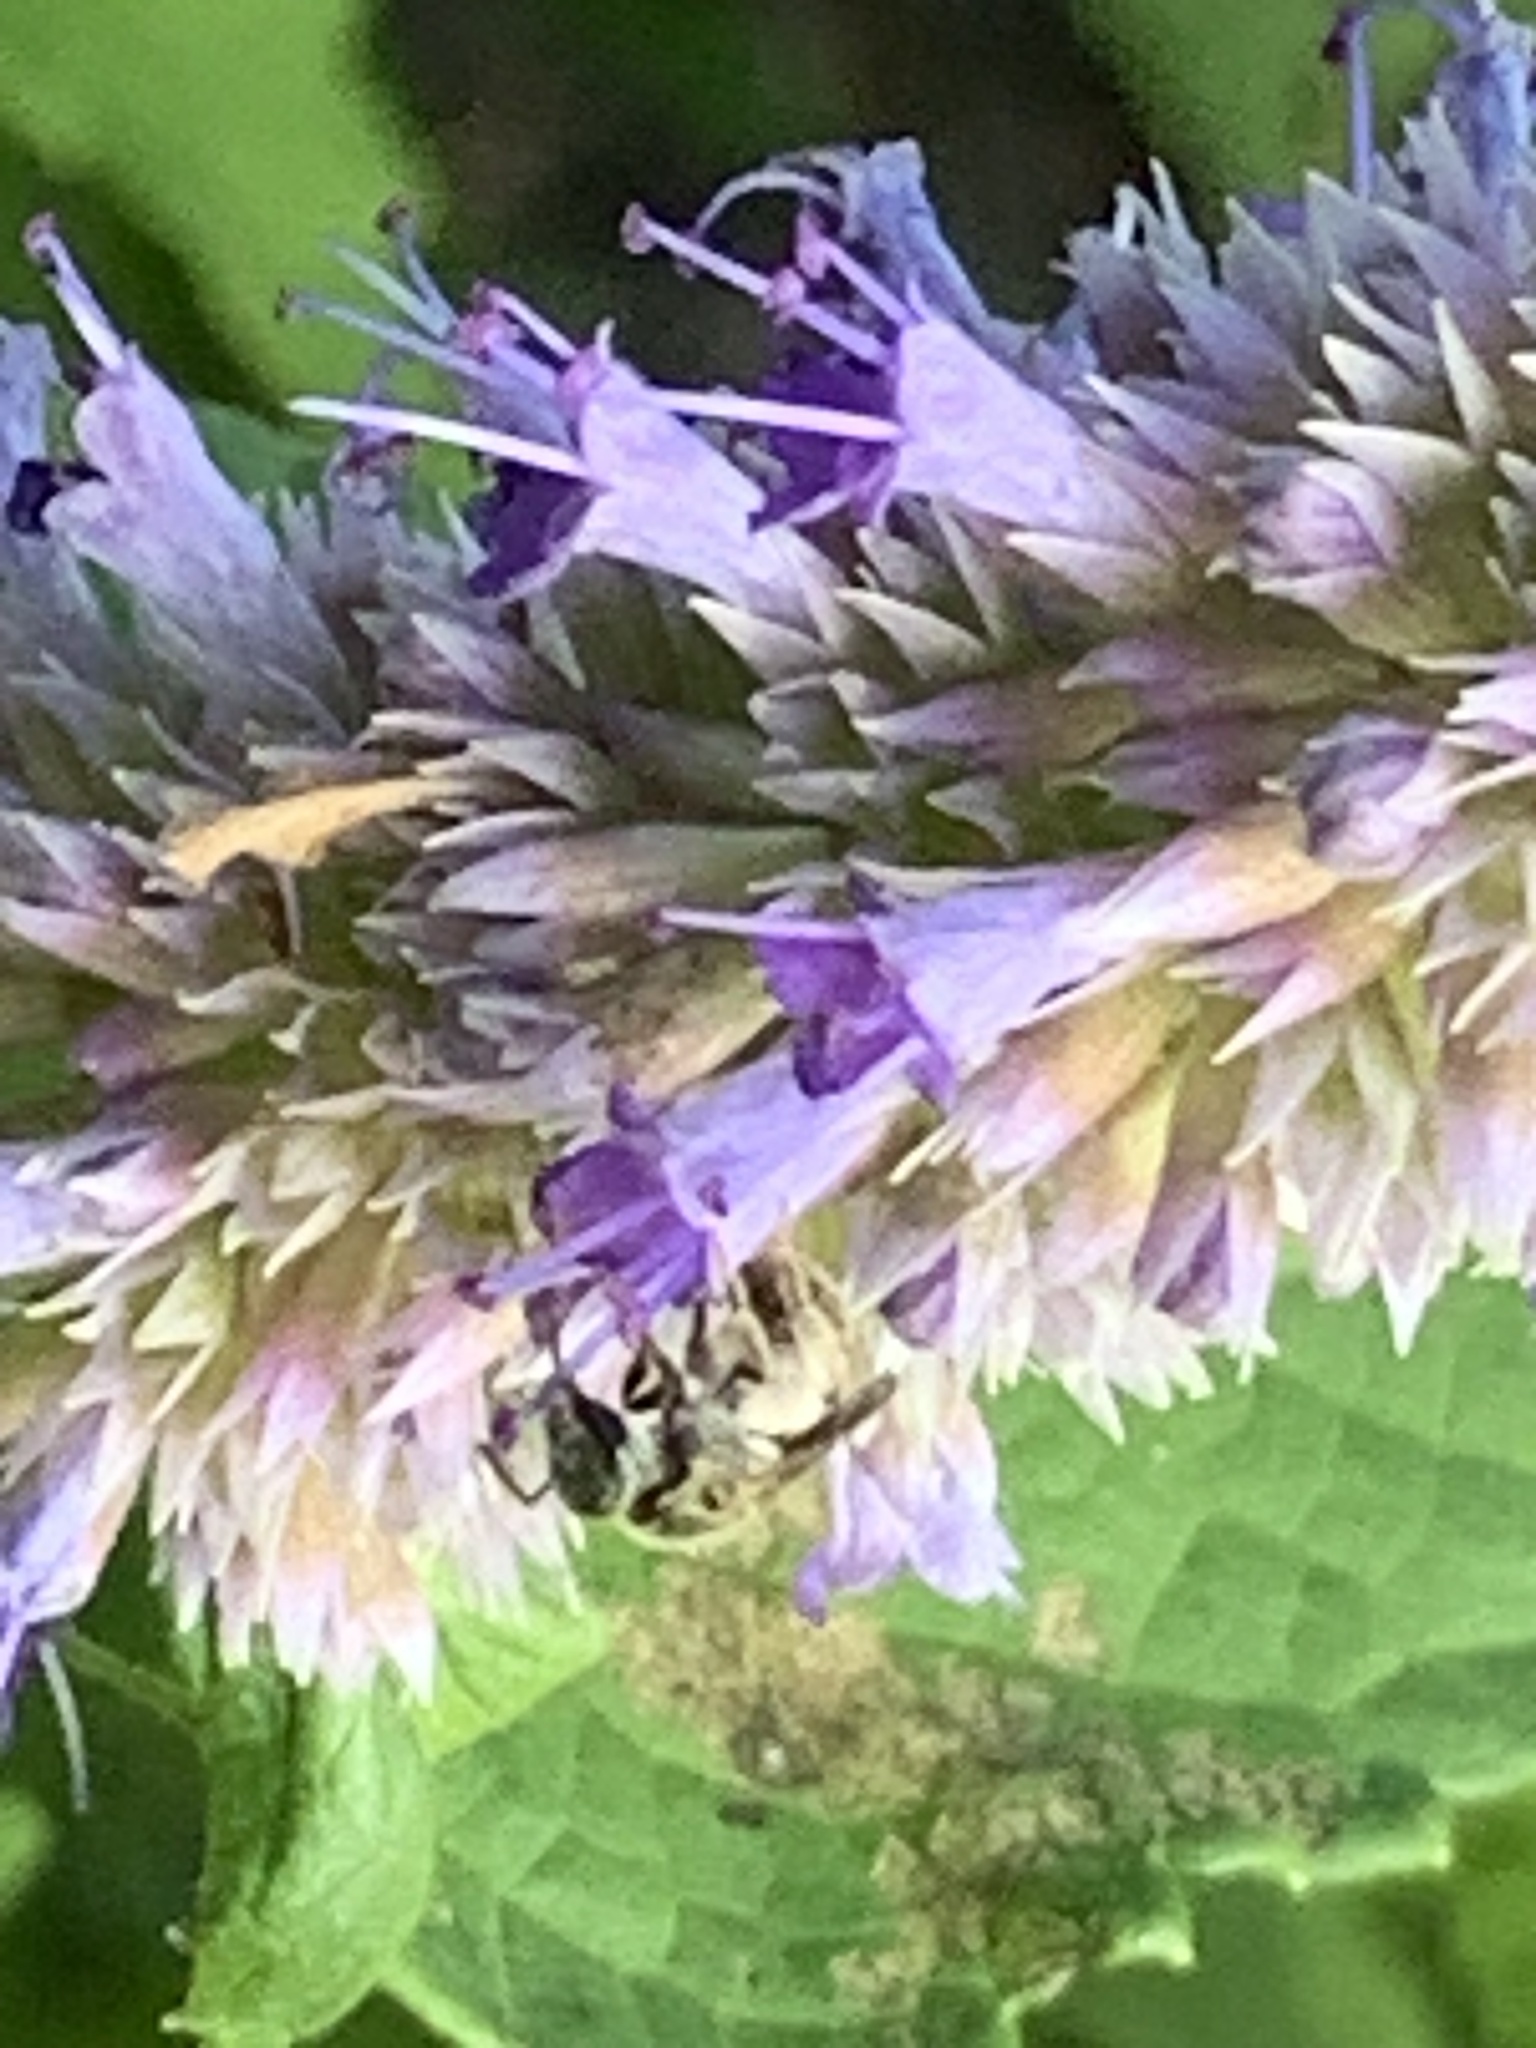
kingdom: Animalia
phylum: Arthropoda
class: Insecta
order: Hymenoptera
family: Halictidae
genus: Lasioglossum
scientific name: Lasioglossum
